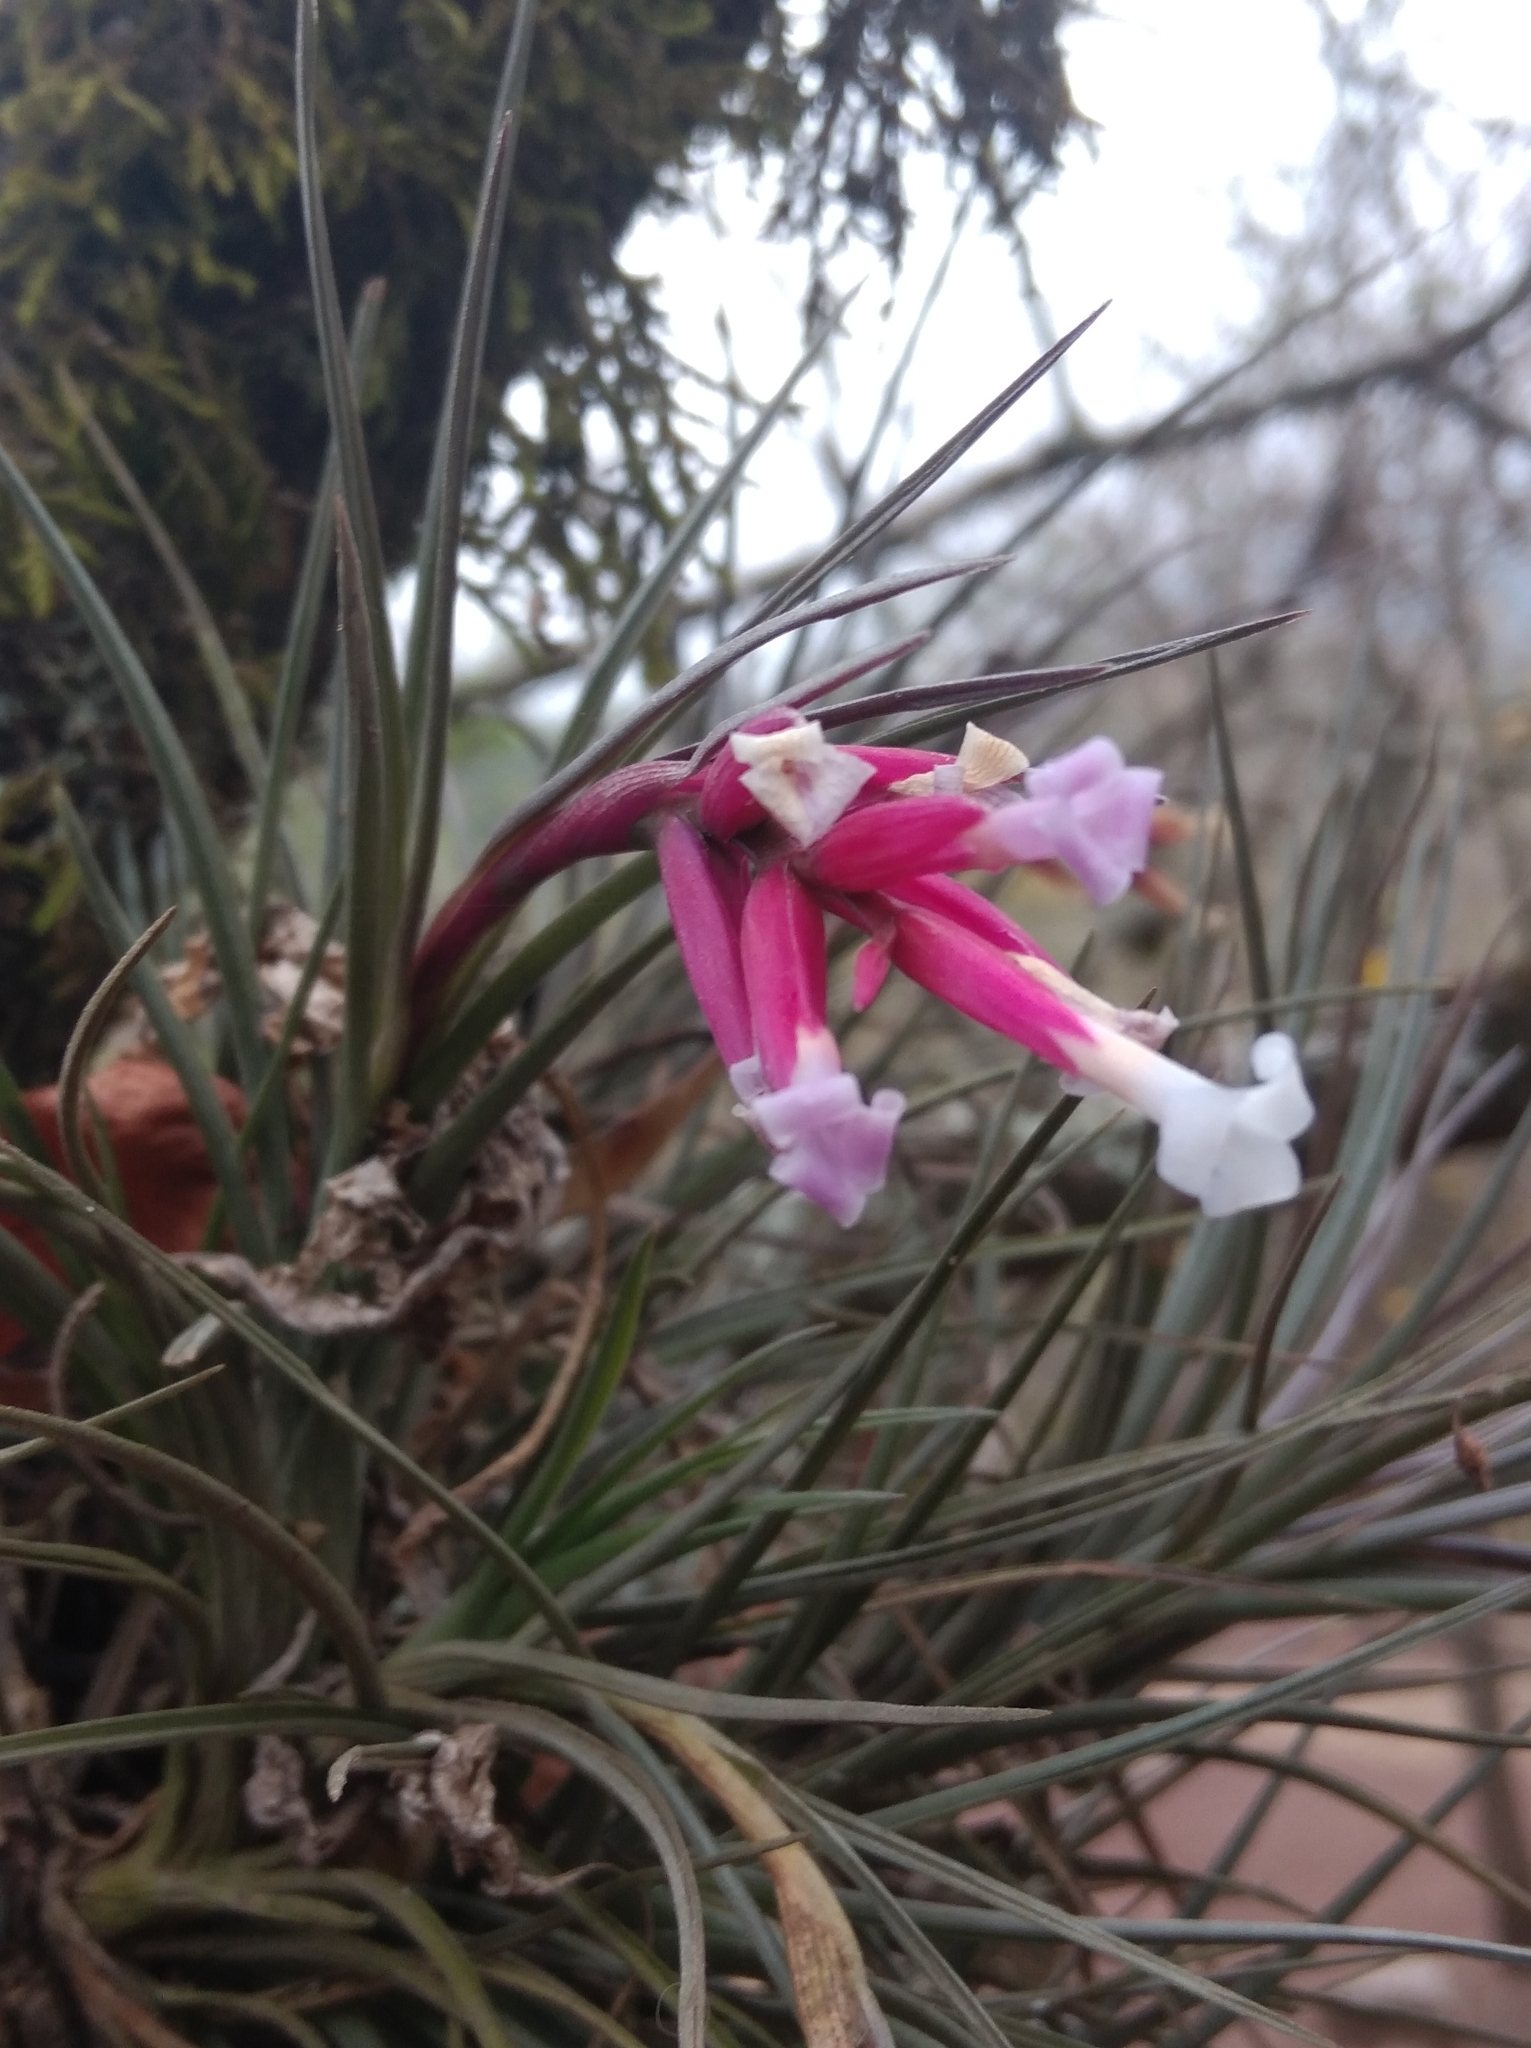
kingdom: Plantae
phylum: Tracheophyta
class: Liliopsida
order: Poales
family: Bromeliaceae
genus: Tillandsia
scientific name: Tillandsia tenuifolia
